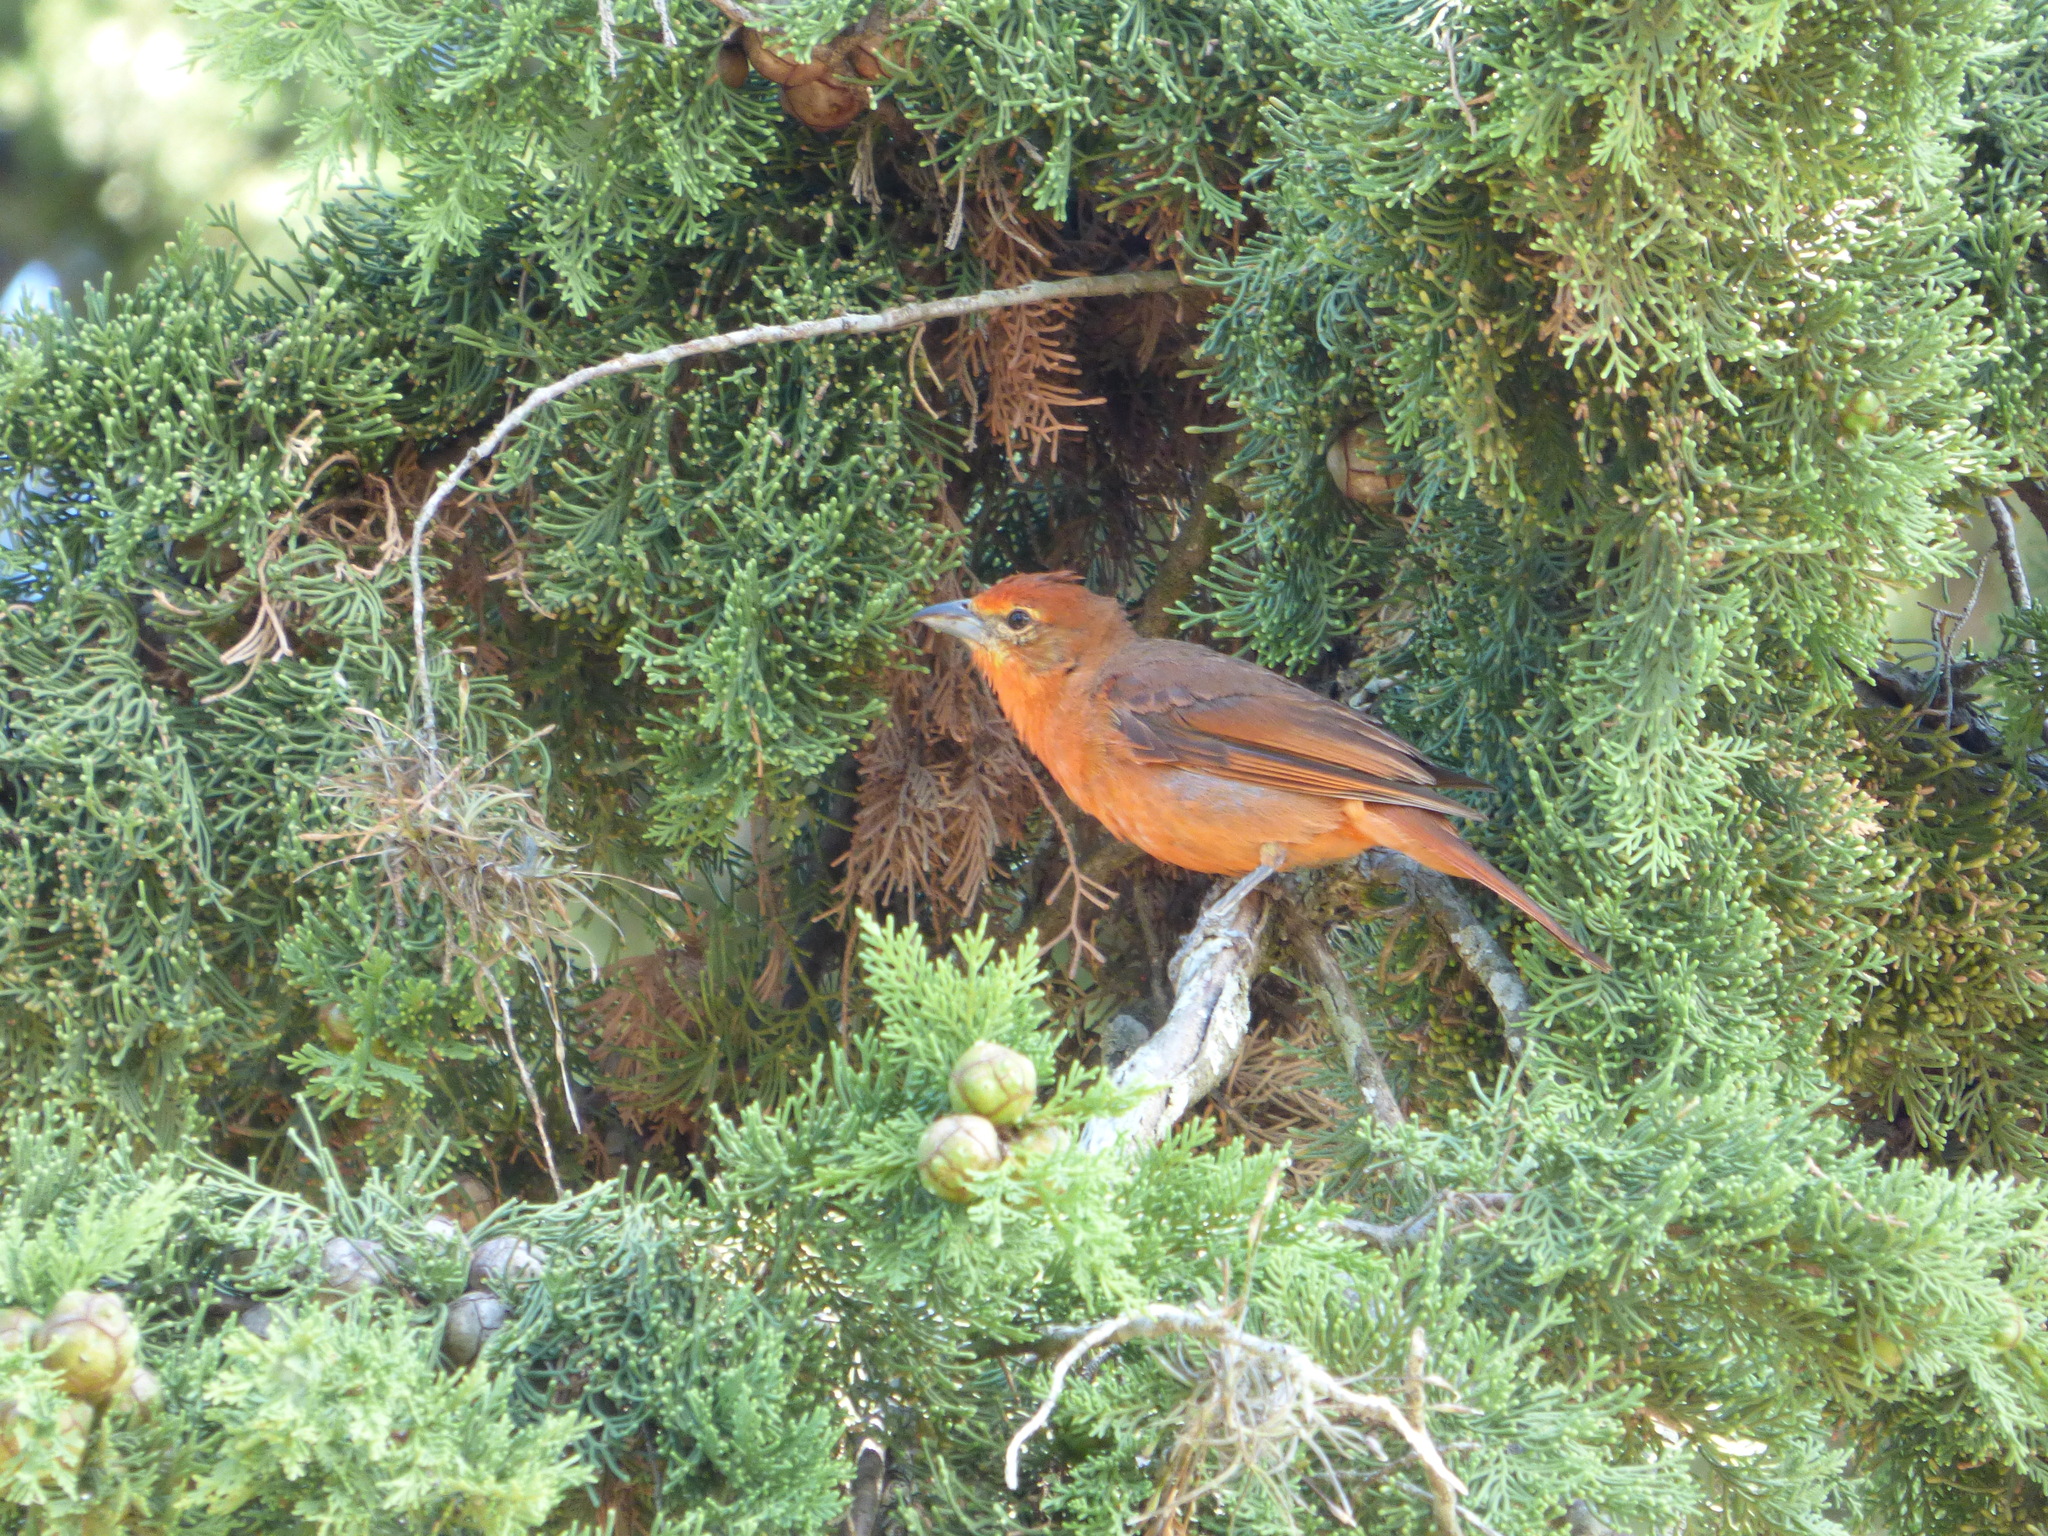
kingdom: Animalia
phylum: Chordata
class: Aves
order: Passeriformes
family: Cardinalidae
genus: Piranga
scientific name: Piranga flava
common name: Red tanager
